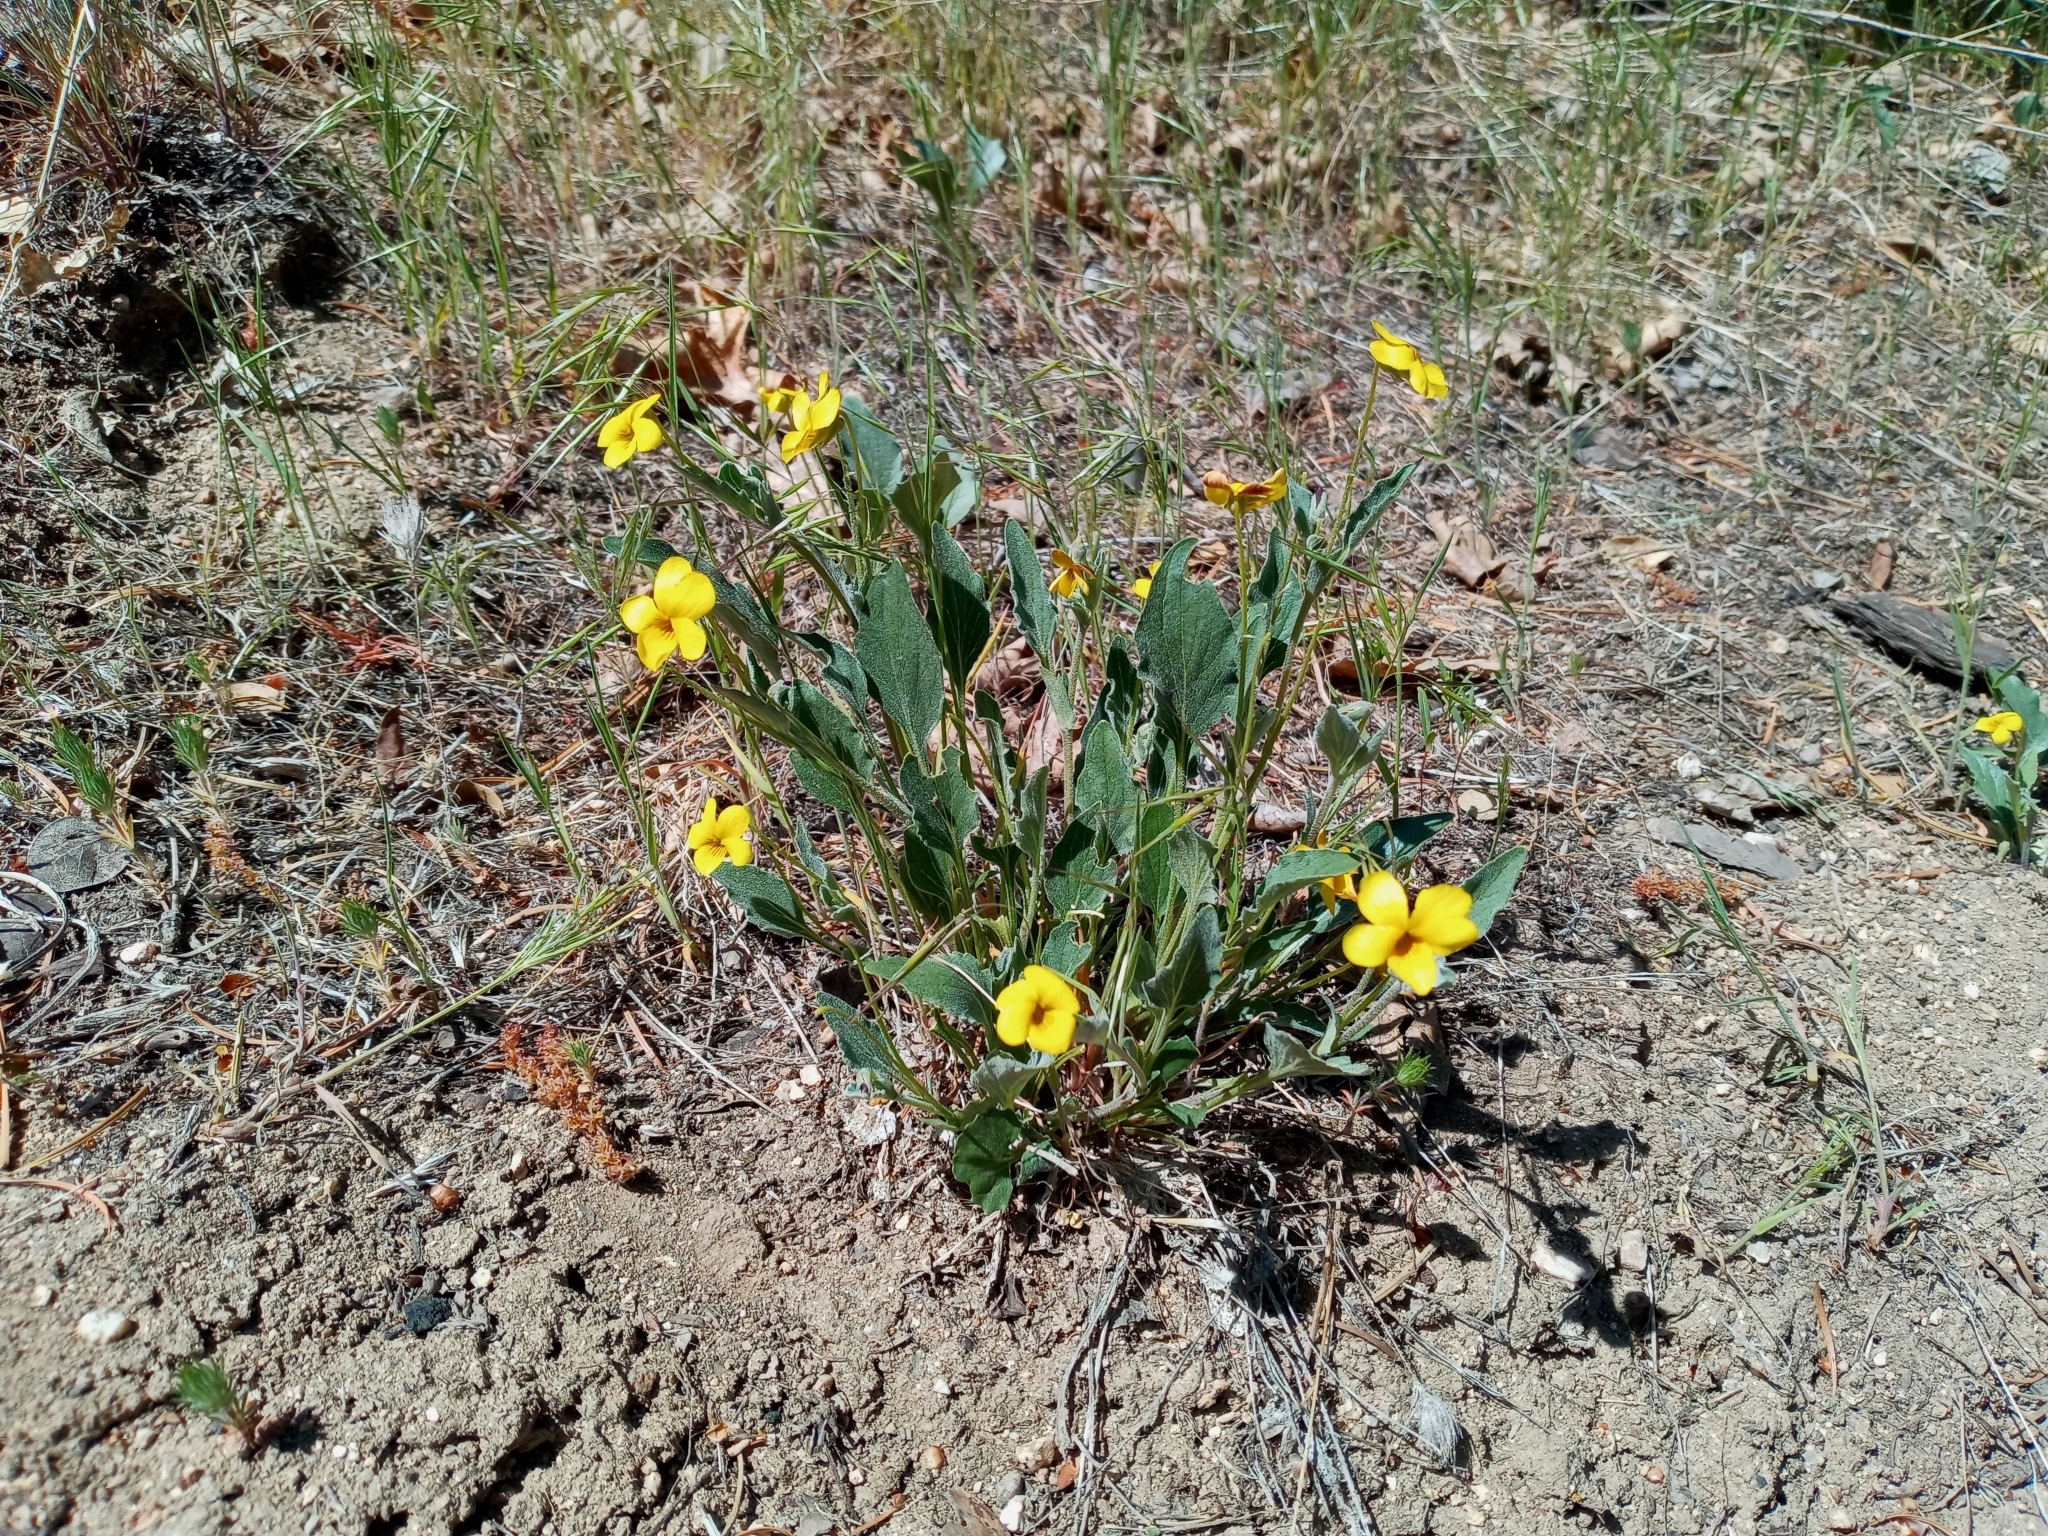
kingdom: Plantae
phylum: Tracheophyta
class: Magnoliopsida
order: Malpighiales
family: Violaceae
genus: Viola
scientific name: Viola quercetorum
